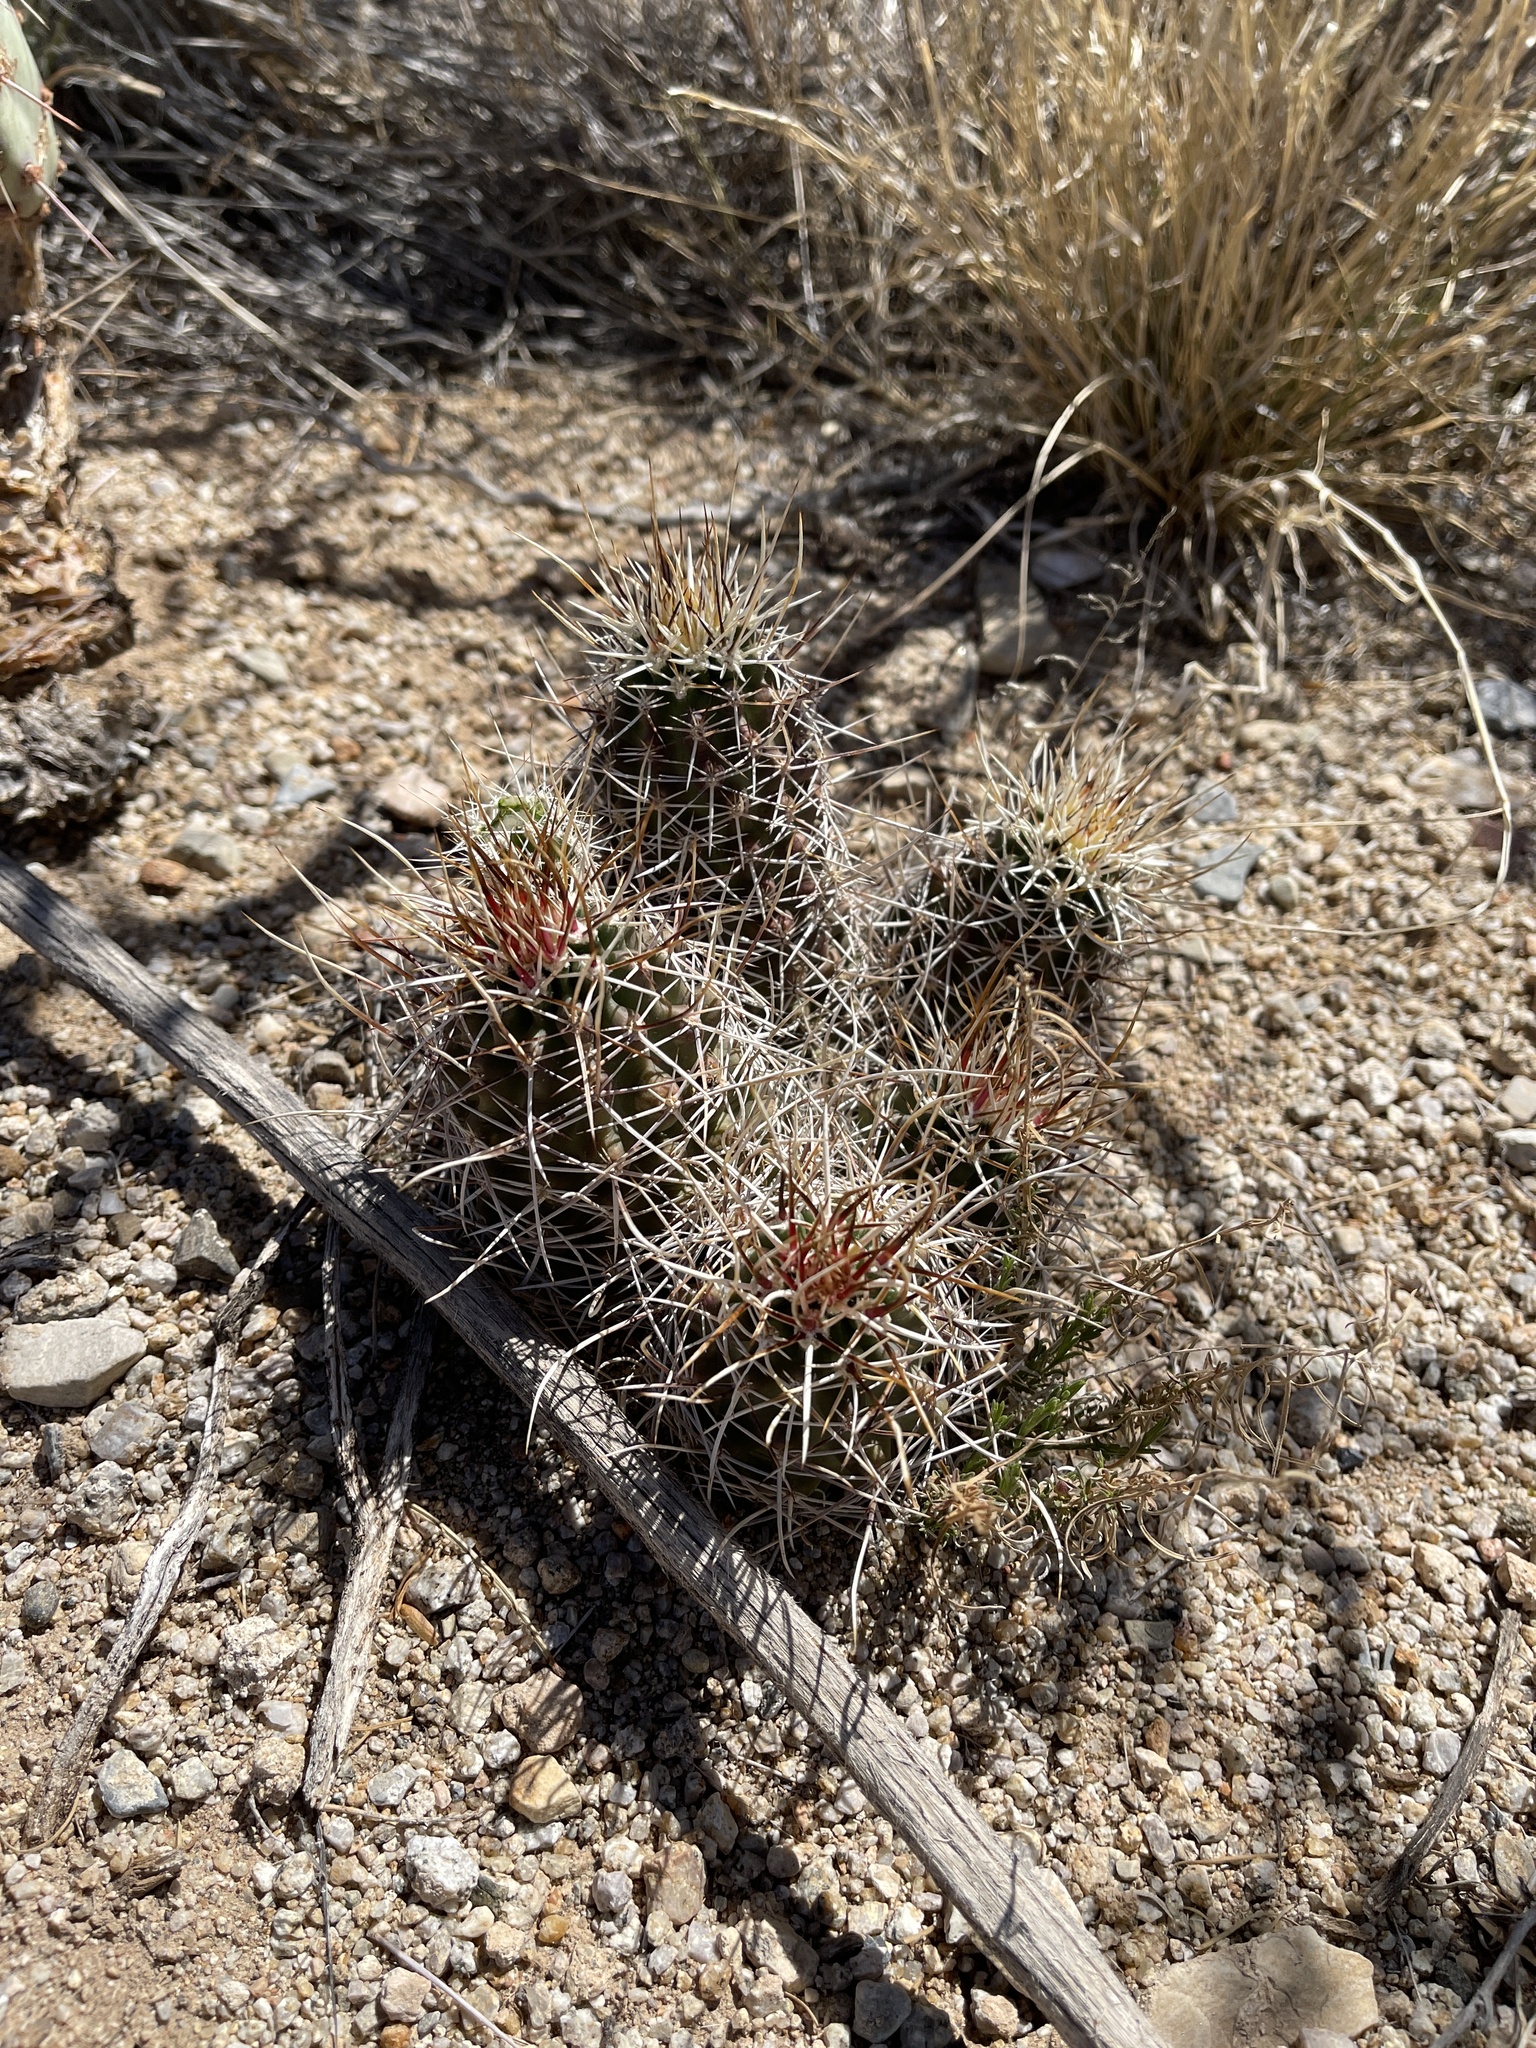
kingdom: Plantae
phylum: Tracheophyta
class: Magnoliopsida
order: Caryophyllales
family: Cactaceae
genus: Echinocereus
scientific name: Echinocereus fendleri
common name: Fendler's hedgehog cactus
